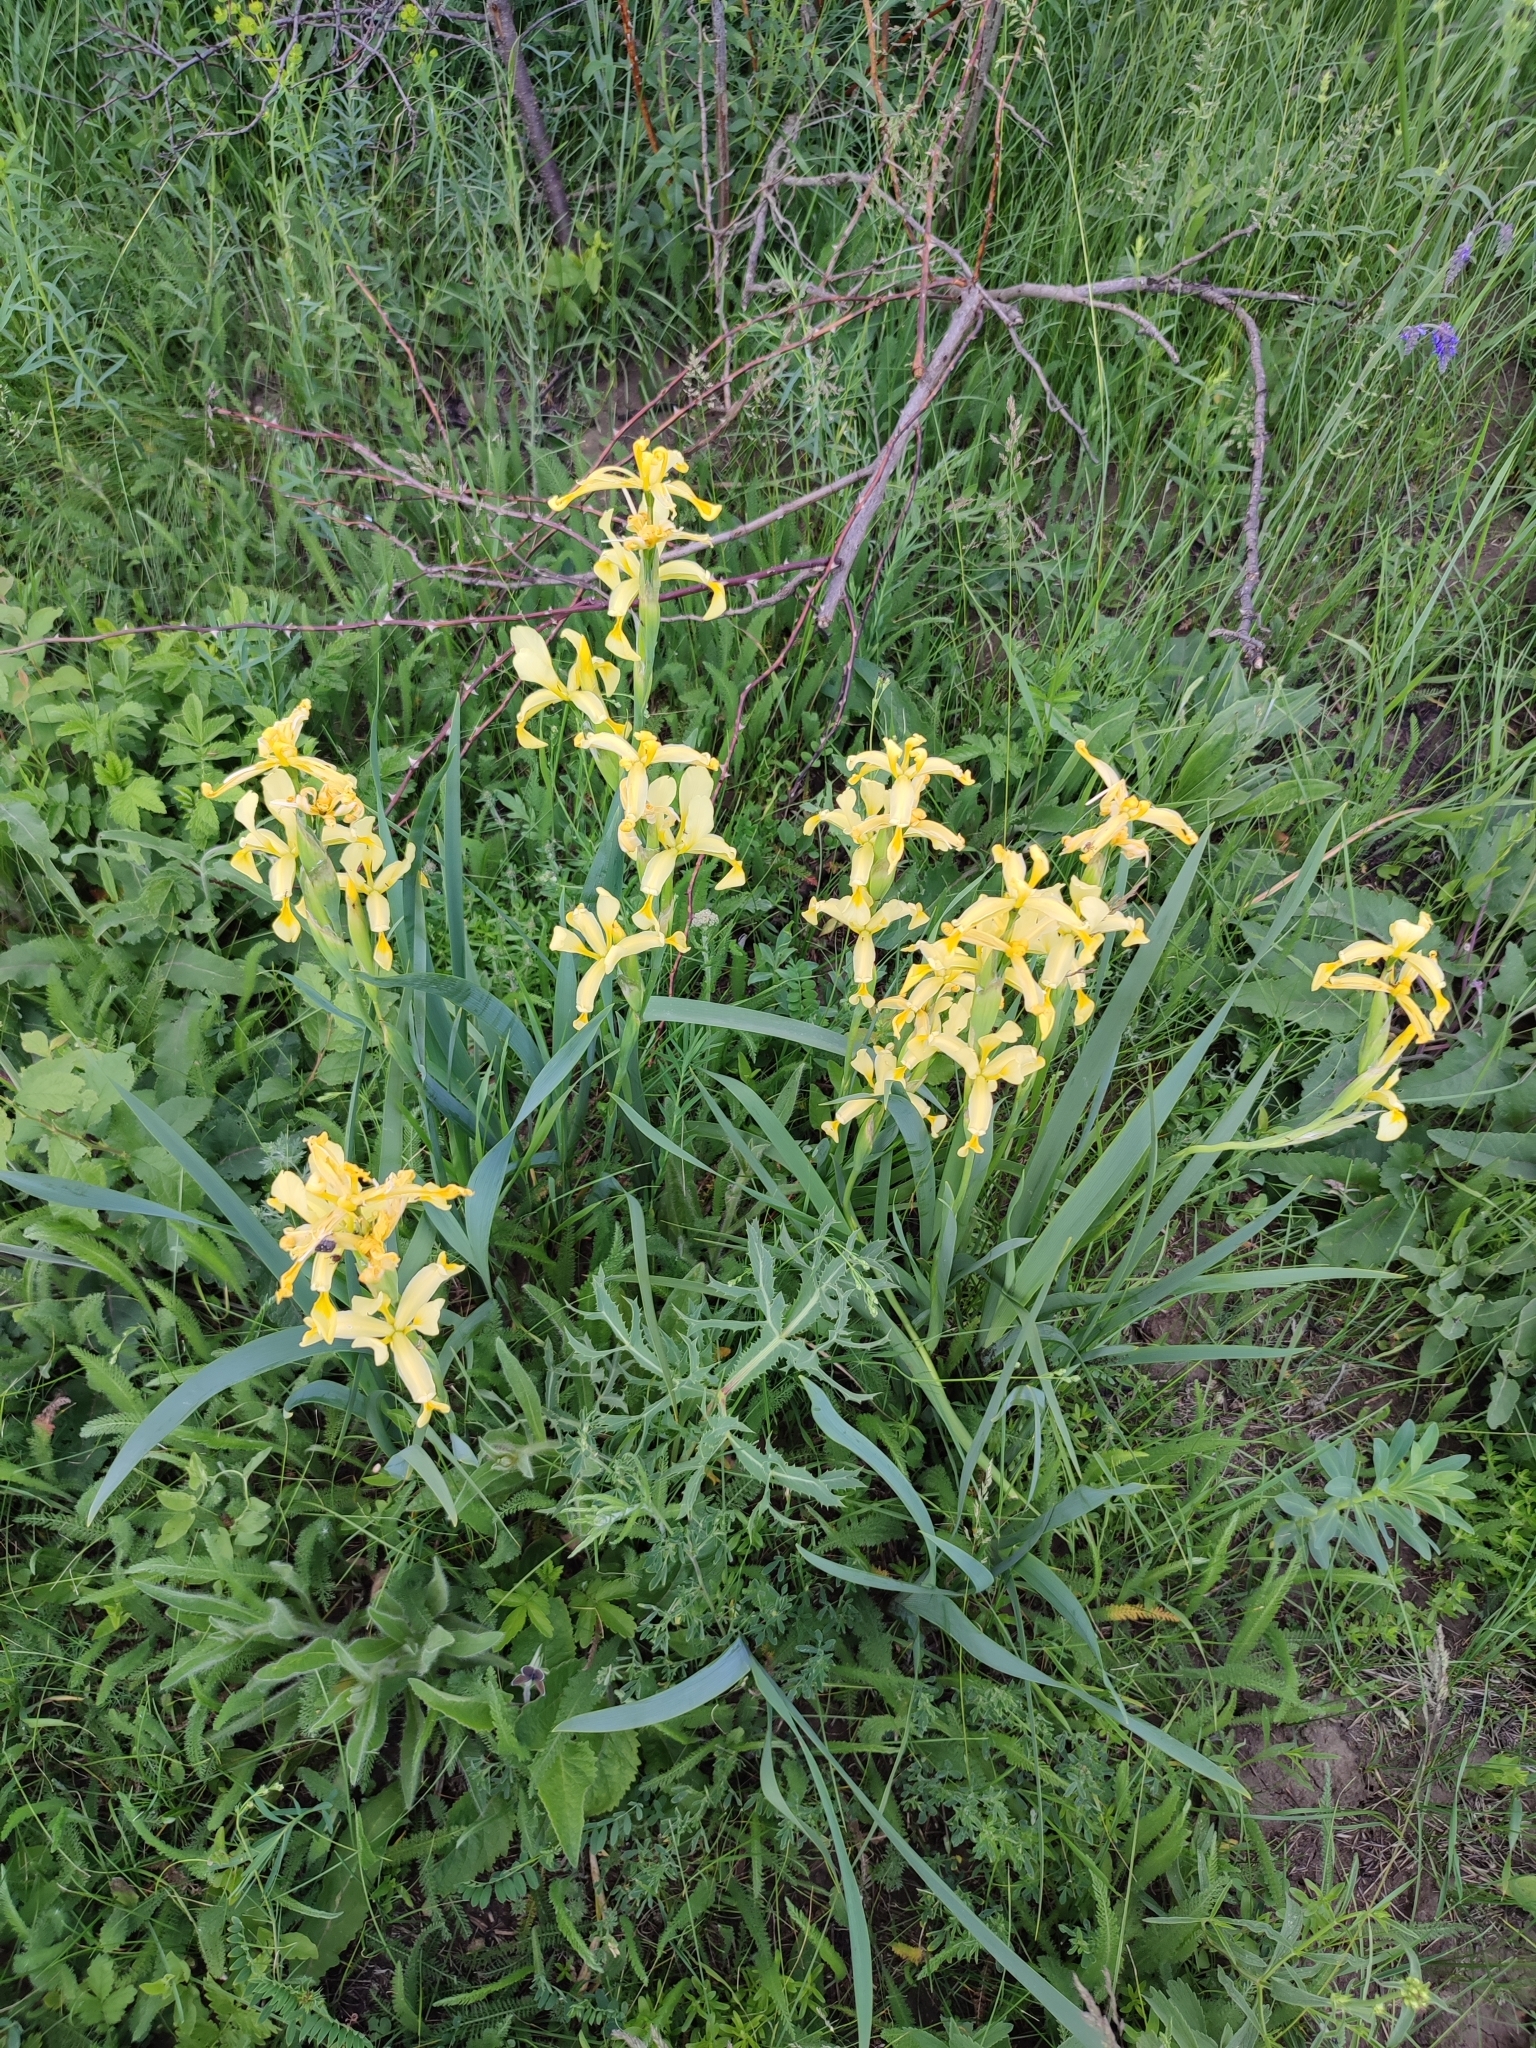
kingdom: Plantae
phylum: Tracheophyta
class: Liliopsida
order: Asparagales
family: Iridaceae
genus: Iris
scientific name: Iris halophila
